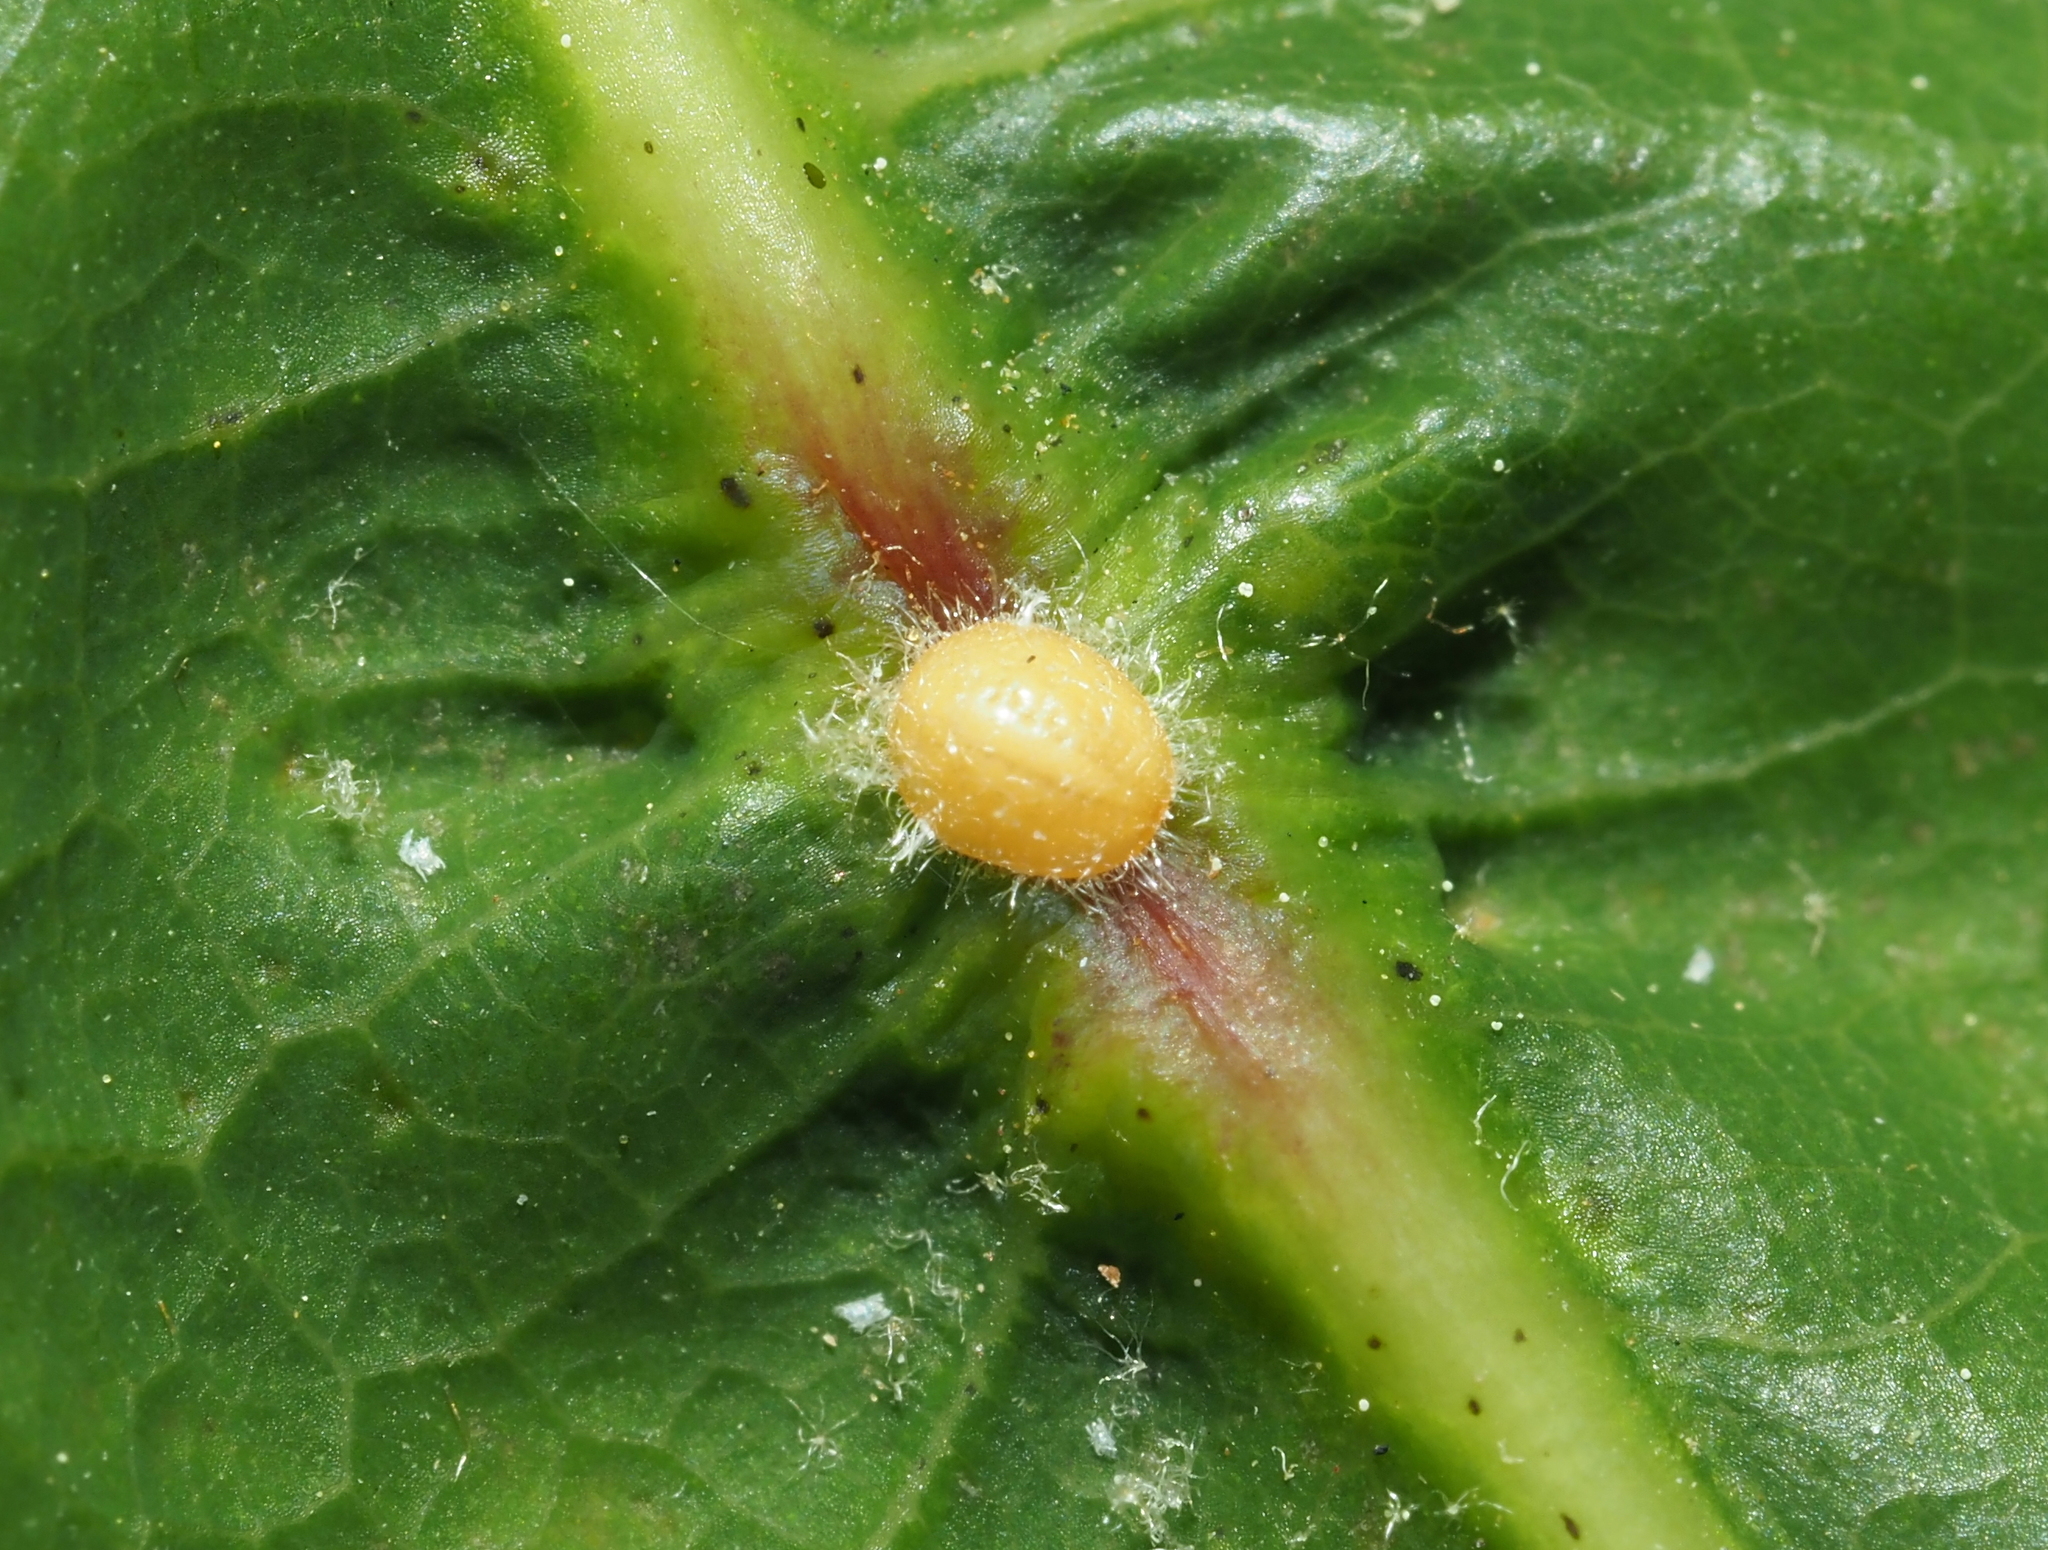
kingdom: Animalia
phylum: Arthropoda
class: Insecta
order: Hemiptera
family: Kermesidae
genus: Nanokermes
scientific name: Nanokermes folium
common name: Leaf kermes
